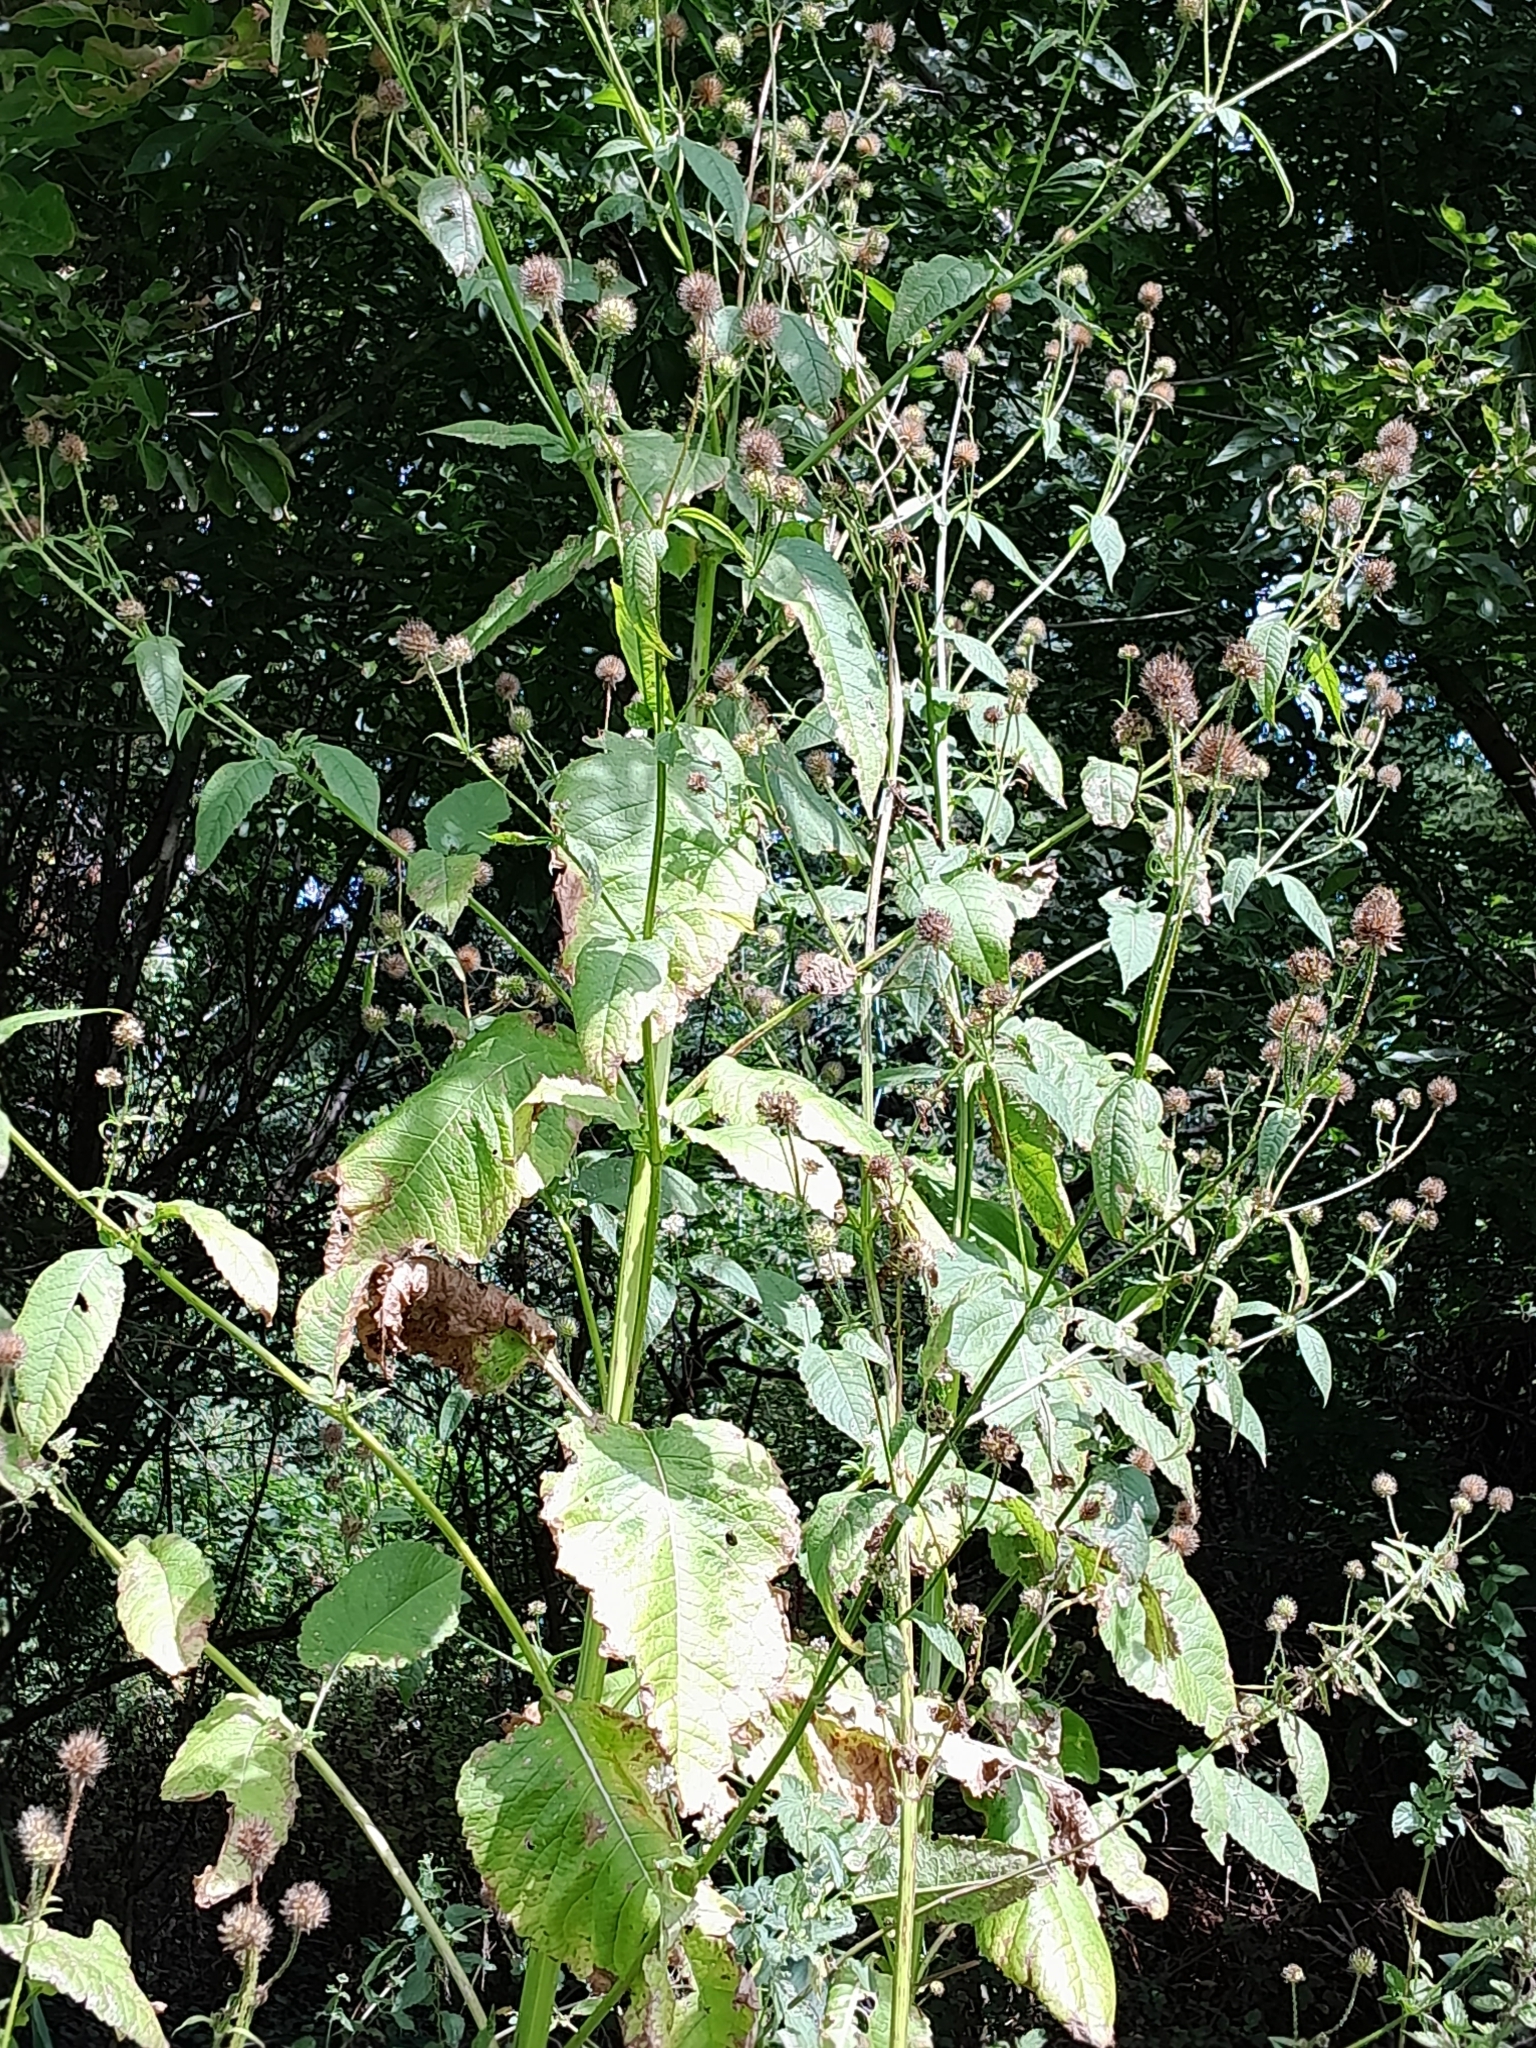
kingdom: Plantae
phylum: Tracheophyta
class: Magnoliopsida
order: Dipsacales
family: Caprifoliaceae
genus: Dipsacus
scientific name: Dipsacus pilosus
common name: Small teasel
